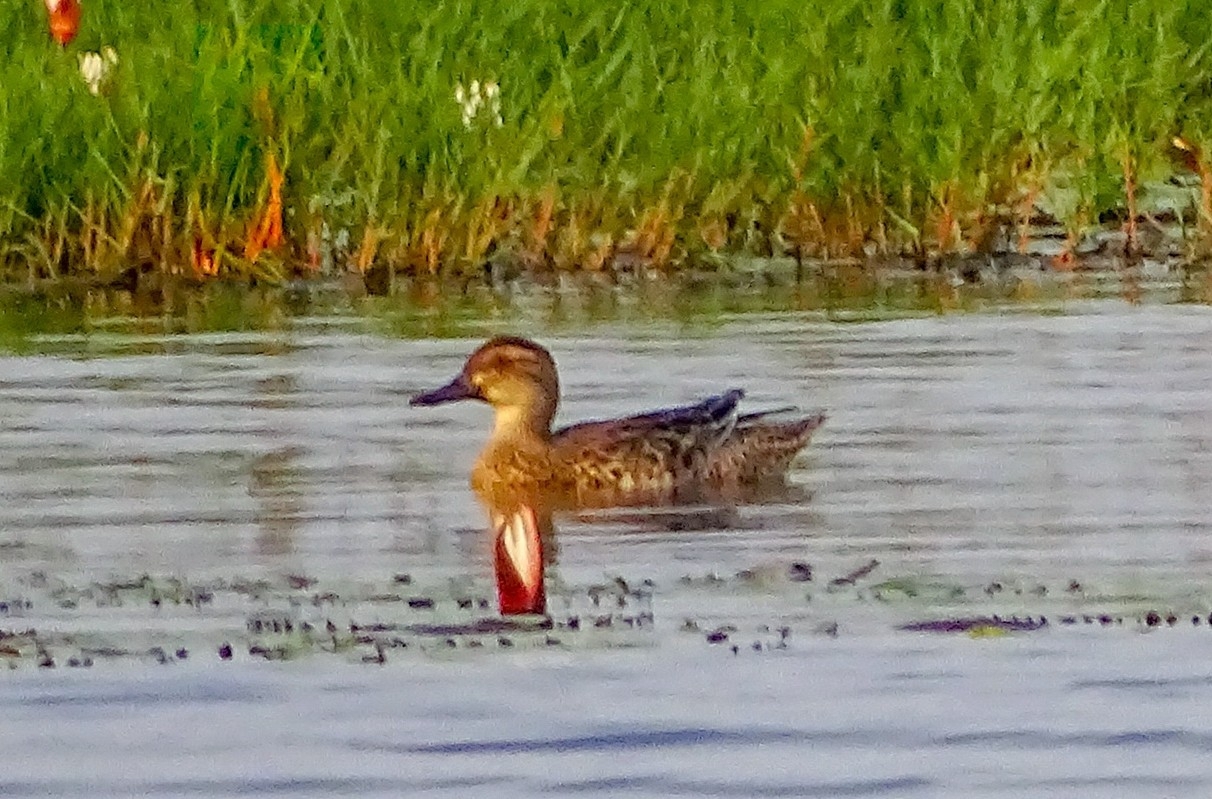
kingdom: Animalia
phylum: Chordata
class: Aves
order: Anseriformes
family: Anatidae
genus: Spatula
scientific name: Spatula querquedula
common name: Garganey
